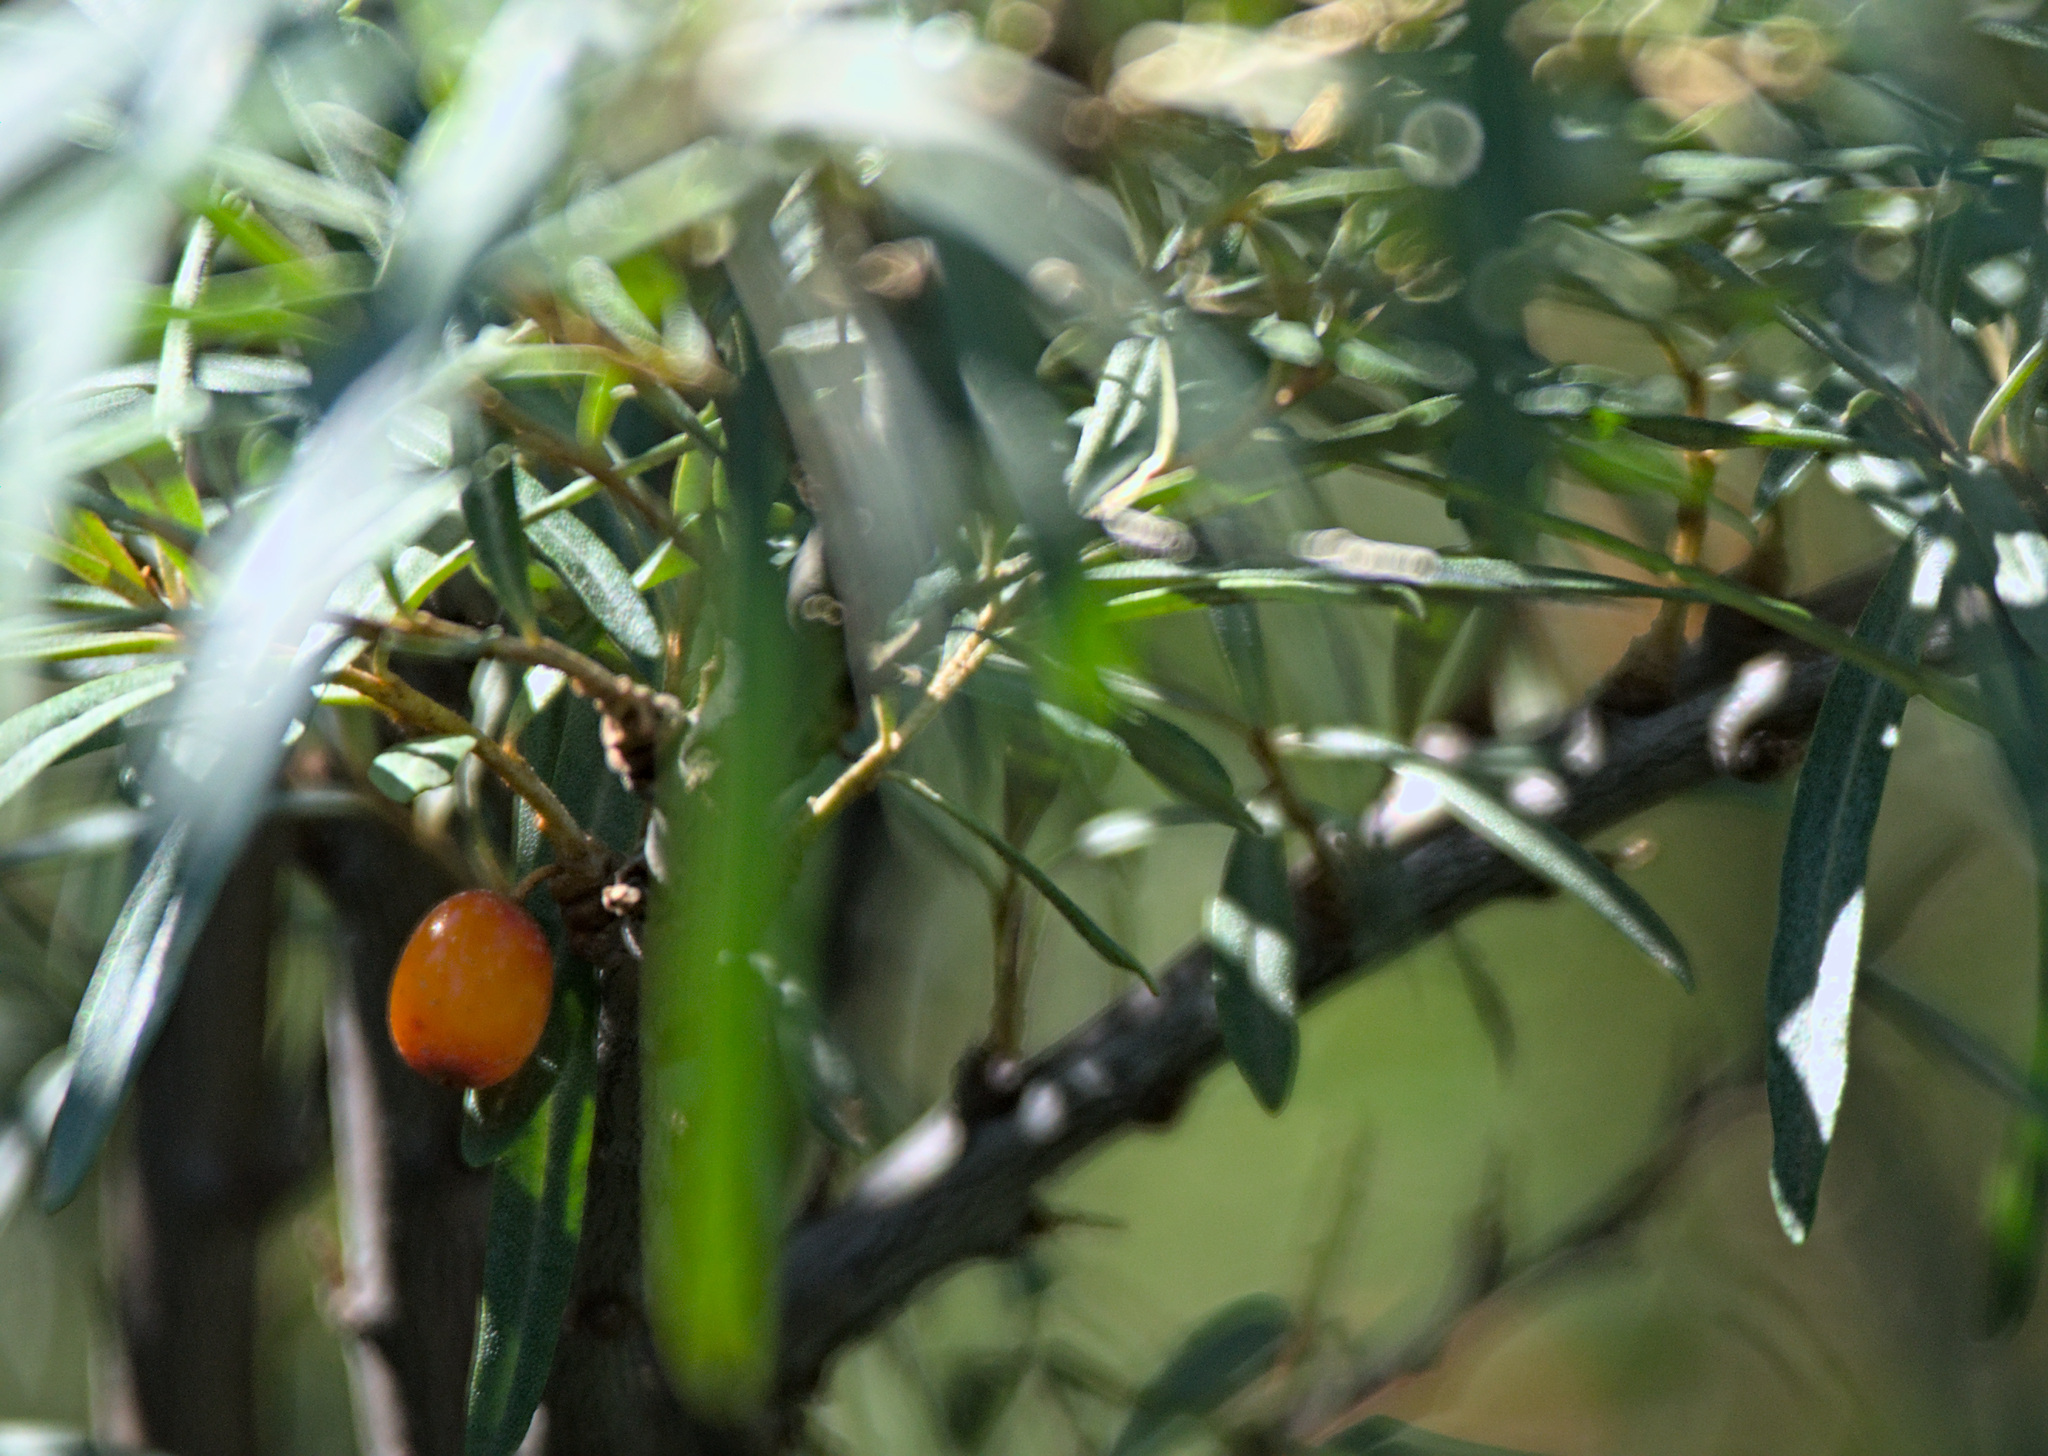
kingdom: Plantae
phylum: Tracheophyta
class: Magnoliopsida
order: Rosales
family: Elaeagnaceae
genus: Hippophae
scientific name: Hippophae rhamnoides
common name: Sea-buckthorn
